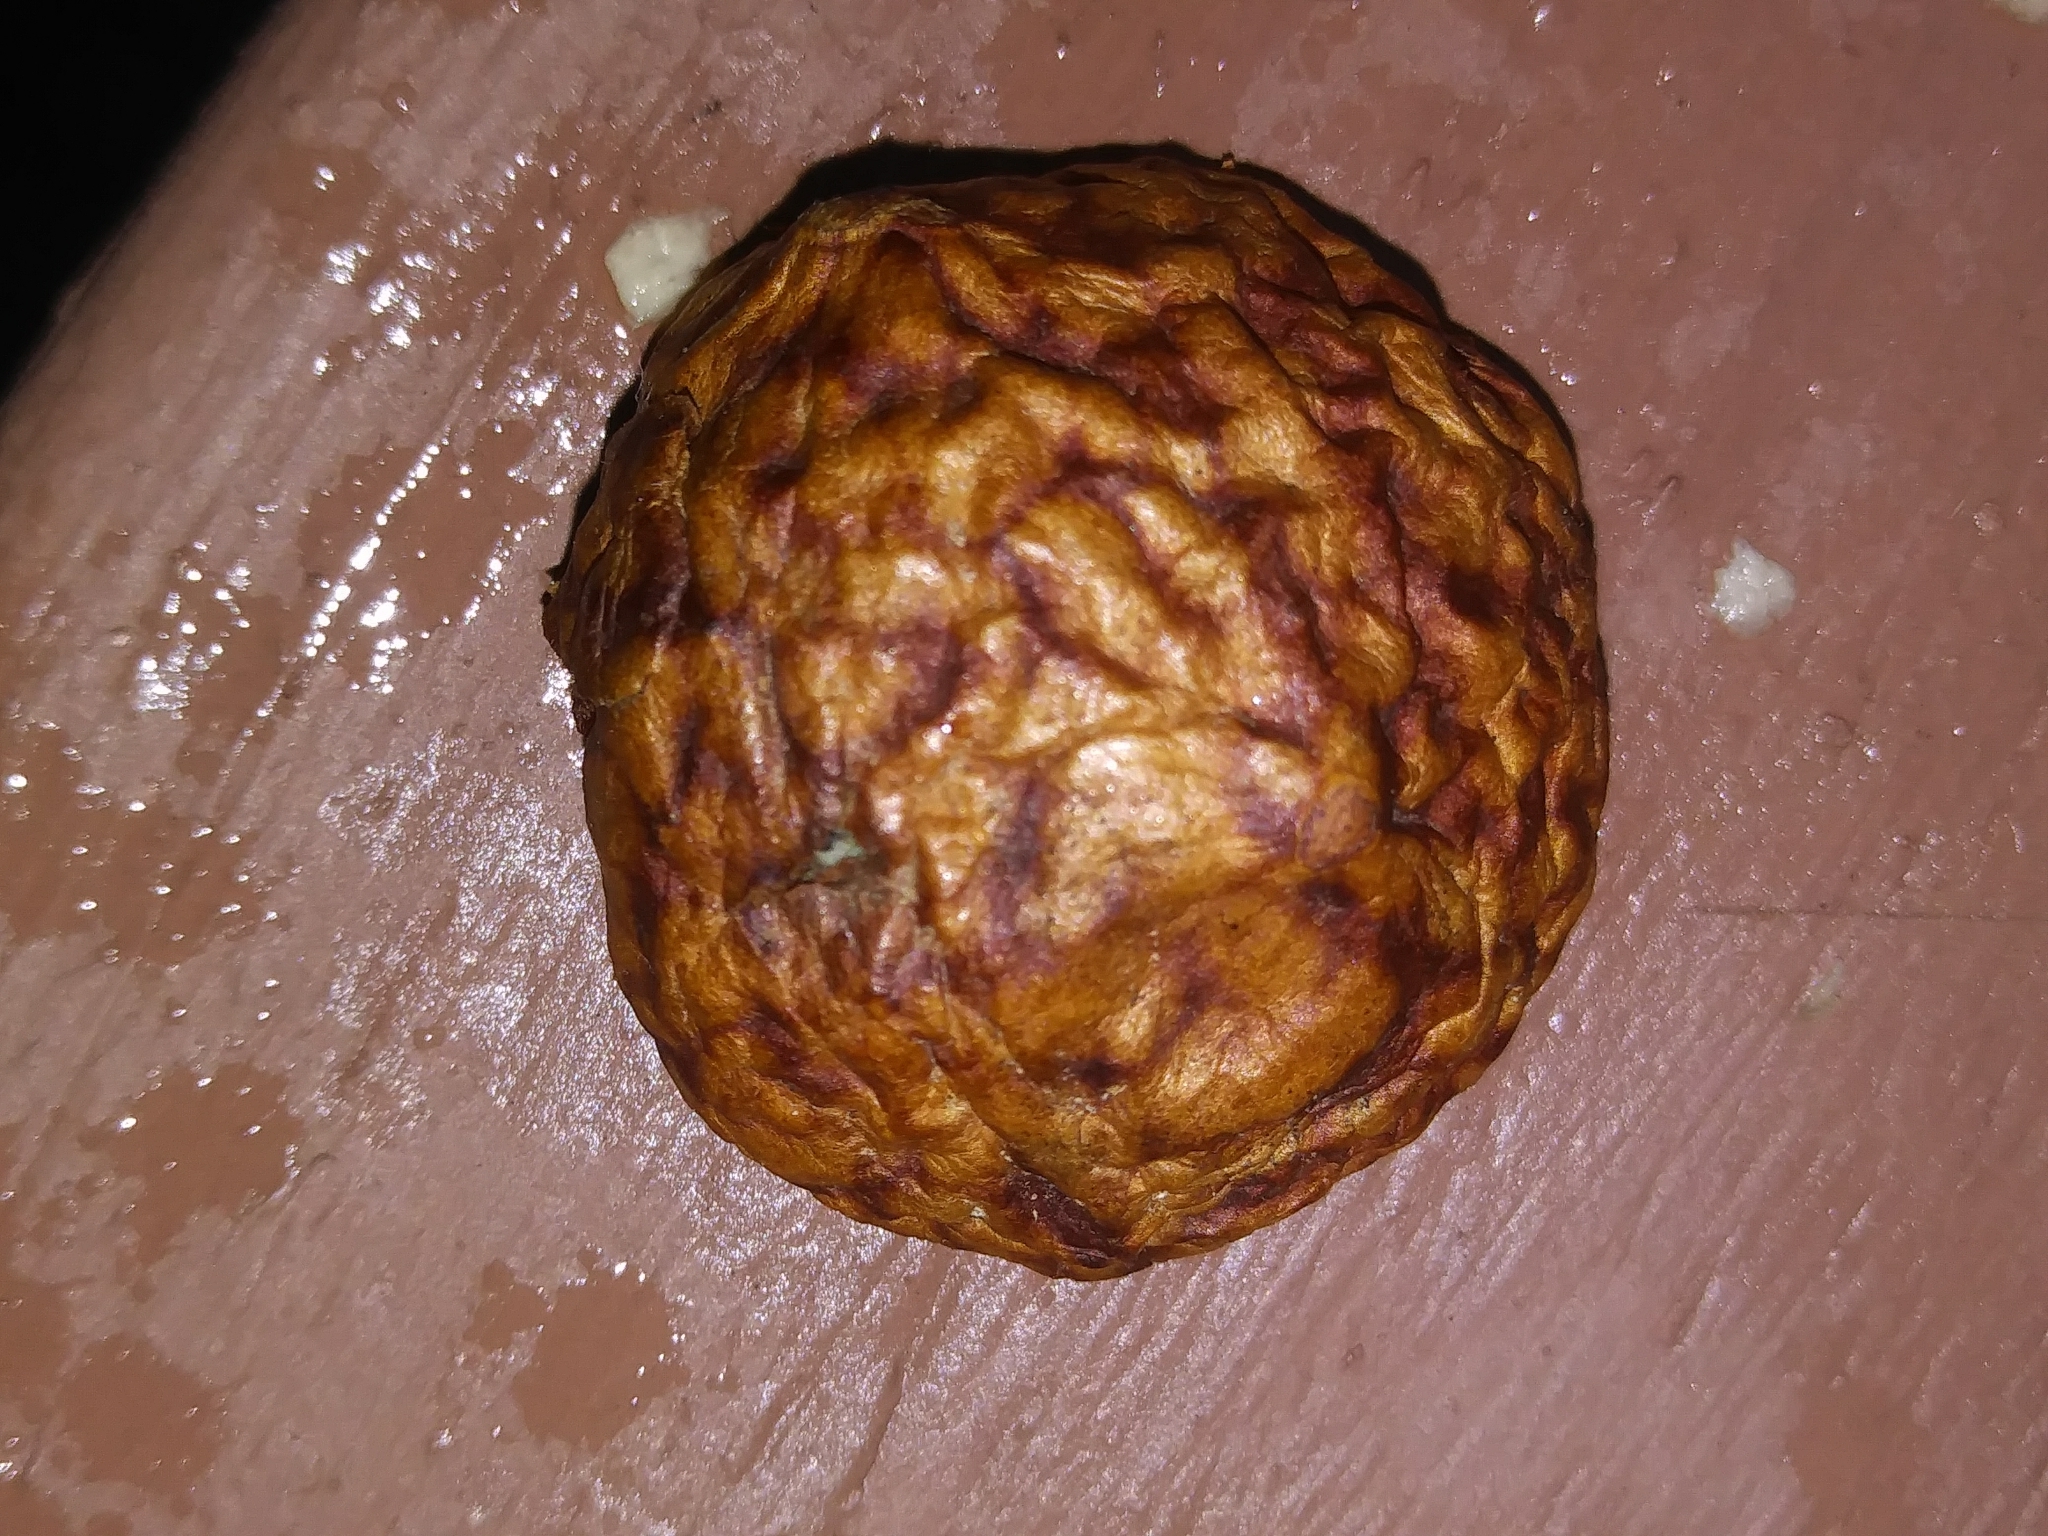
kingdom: Animalia
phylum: Arthropoda
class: Insecta
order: Hymenoptera
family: Cynipidae
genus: Amphibolips
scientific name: Amphibolips
